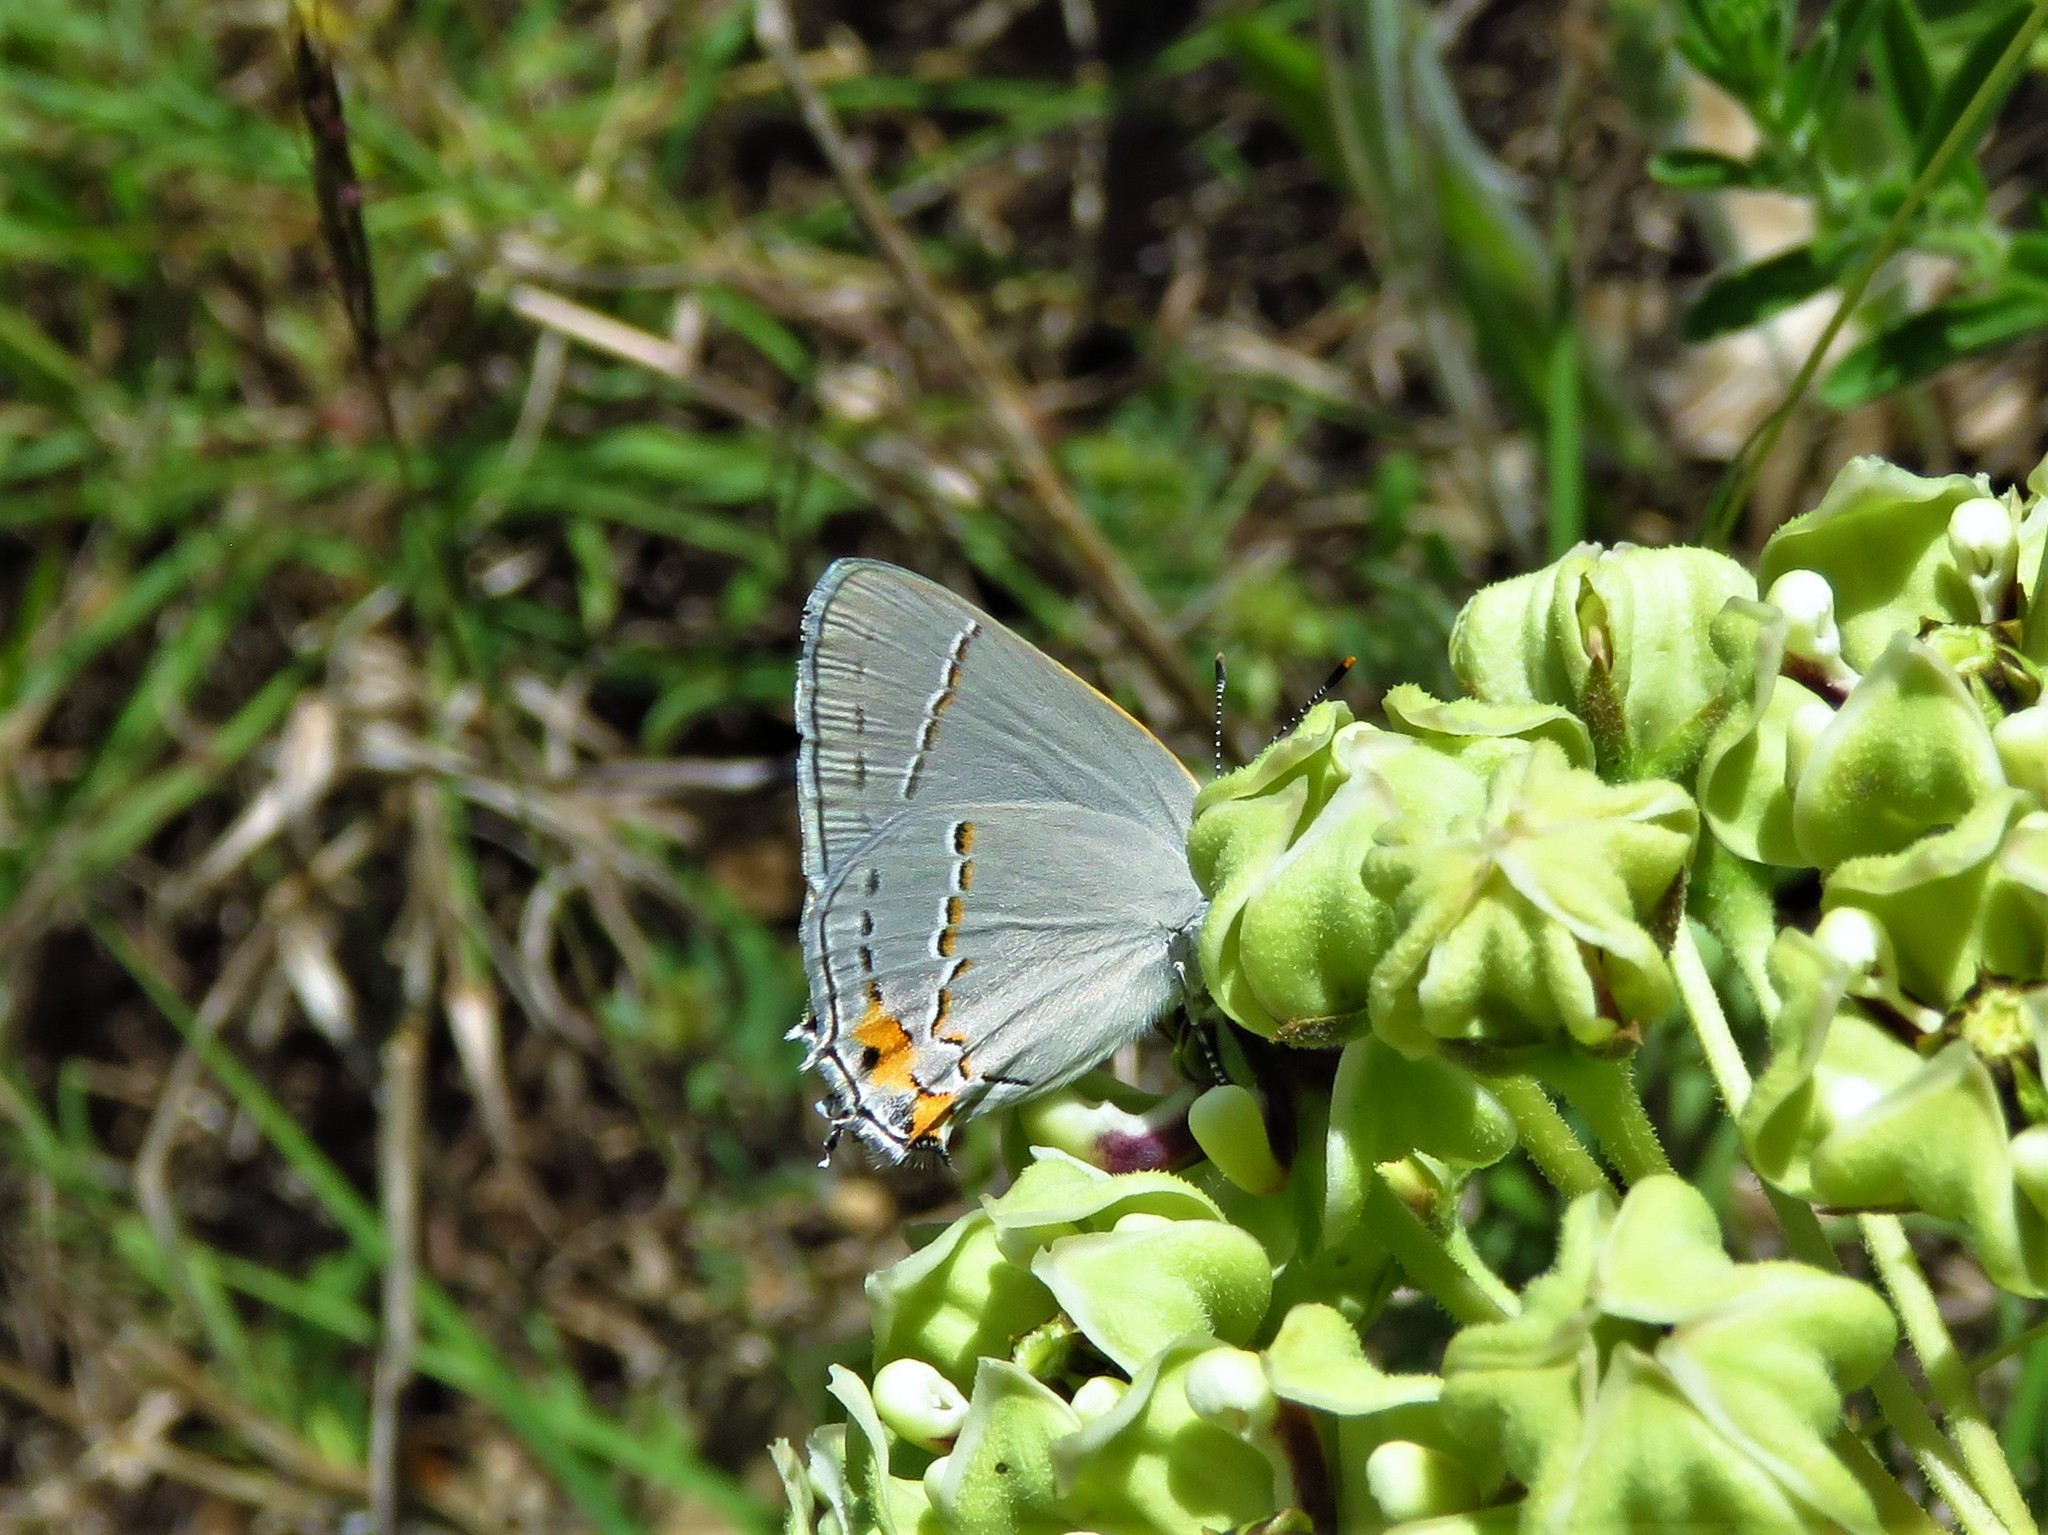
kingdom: Animalia
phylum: Arthropoda
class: Insecta
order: Lepidoptera
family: Lycaenidae
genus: Strymon
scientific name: Strymon melinus
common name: Gray hairstreak
